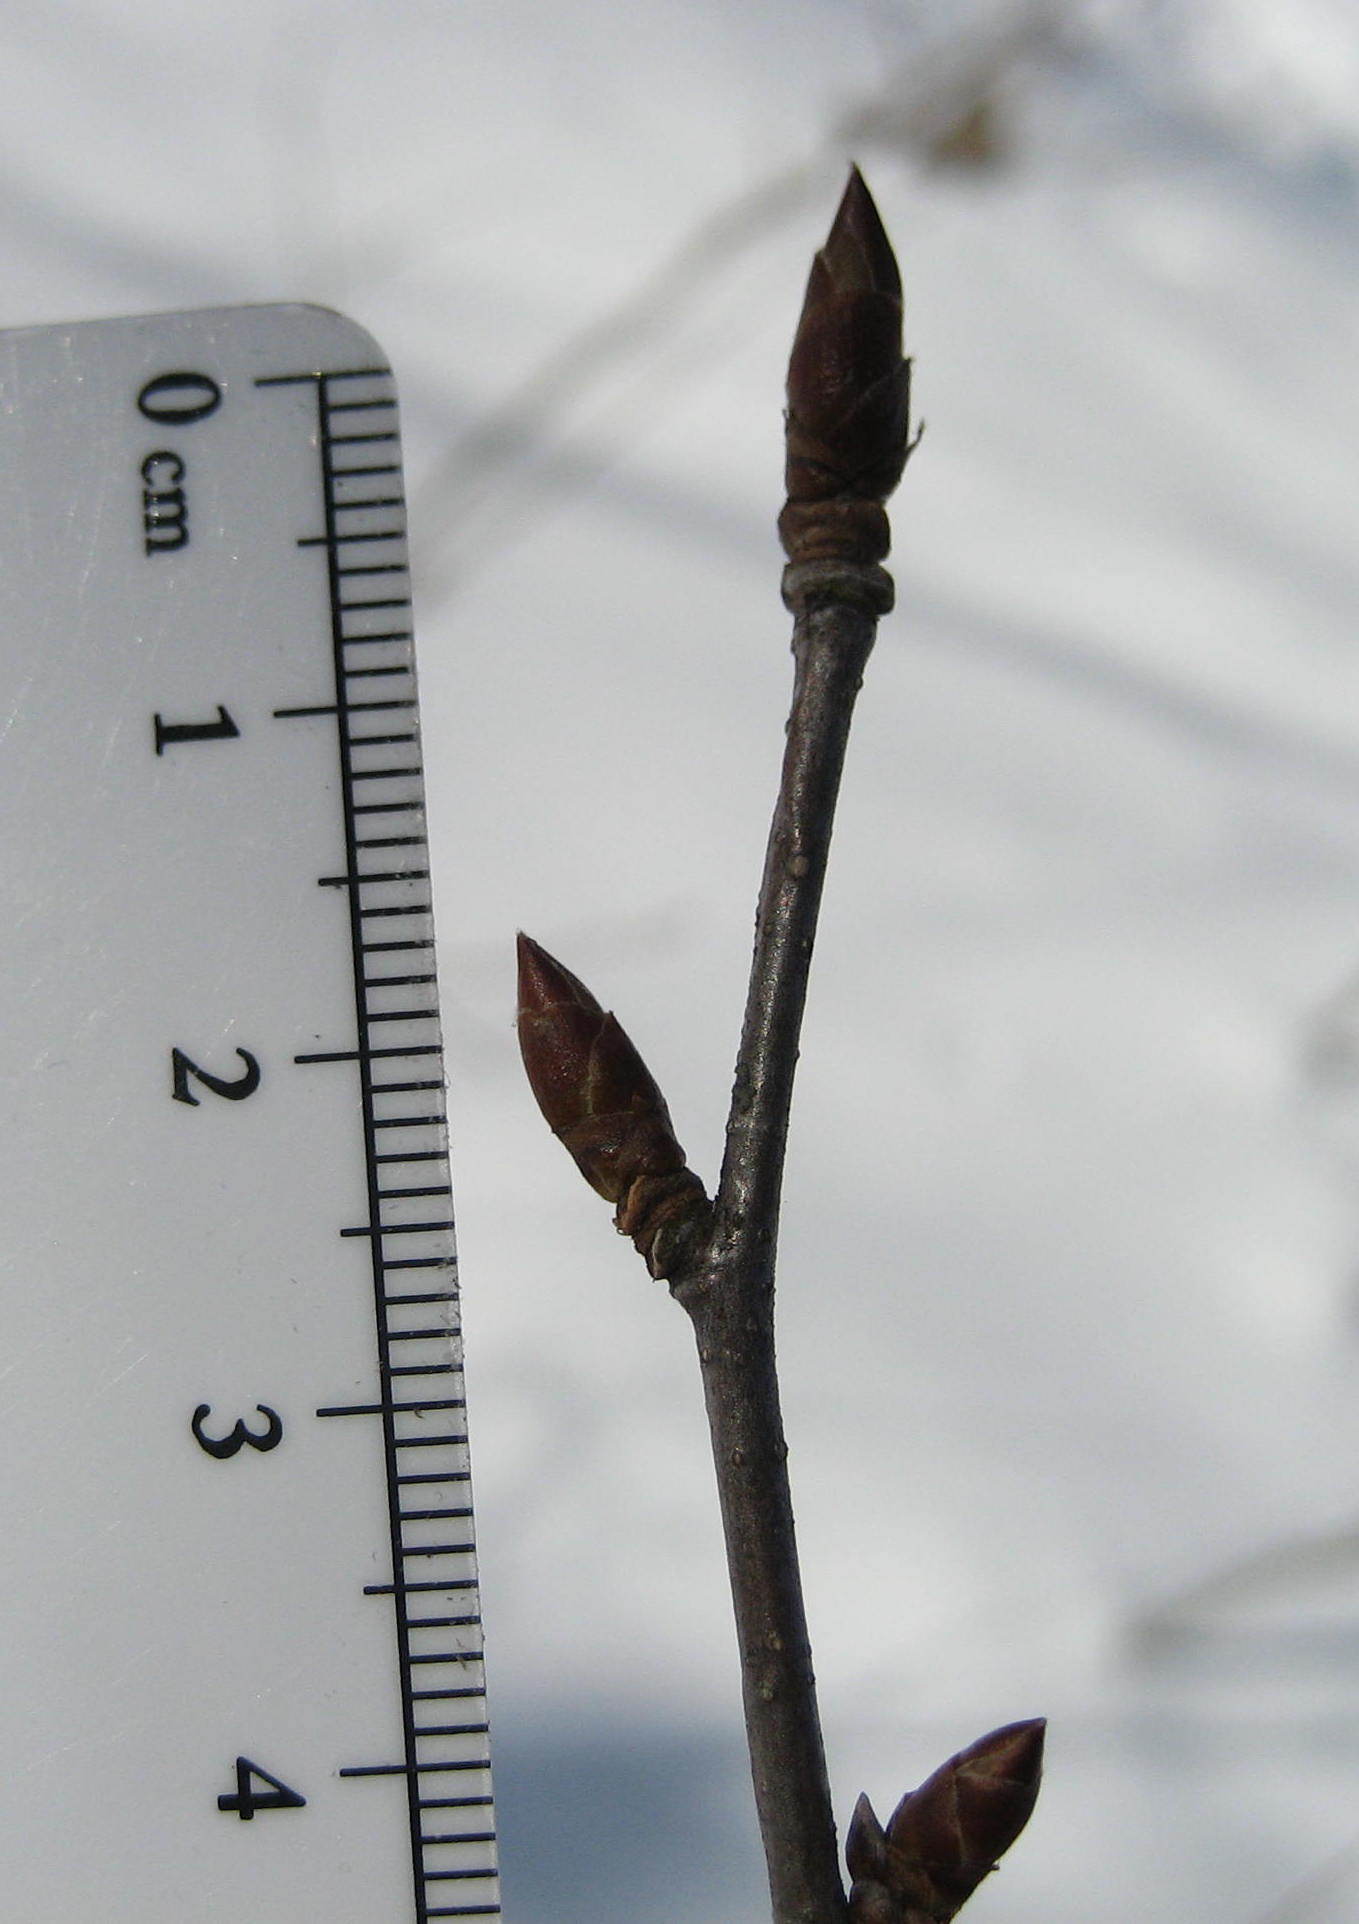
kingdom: Plantae
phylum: Tracheophyta
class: Magnoliopsida
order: Fagales
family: Betulaceae
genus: Betula
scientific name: Betula alleghaniensis
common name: Yellow birch
